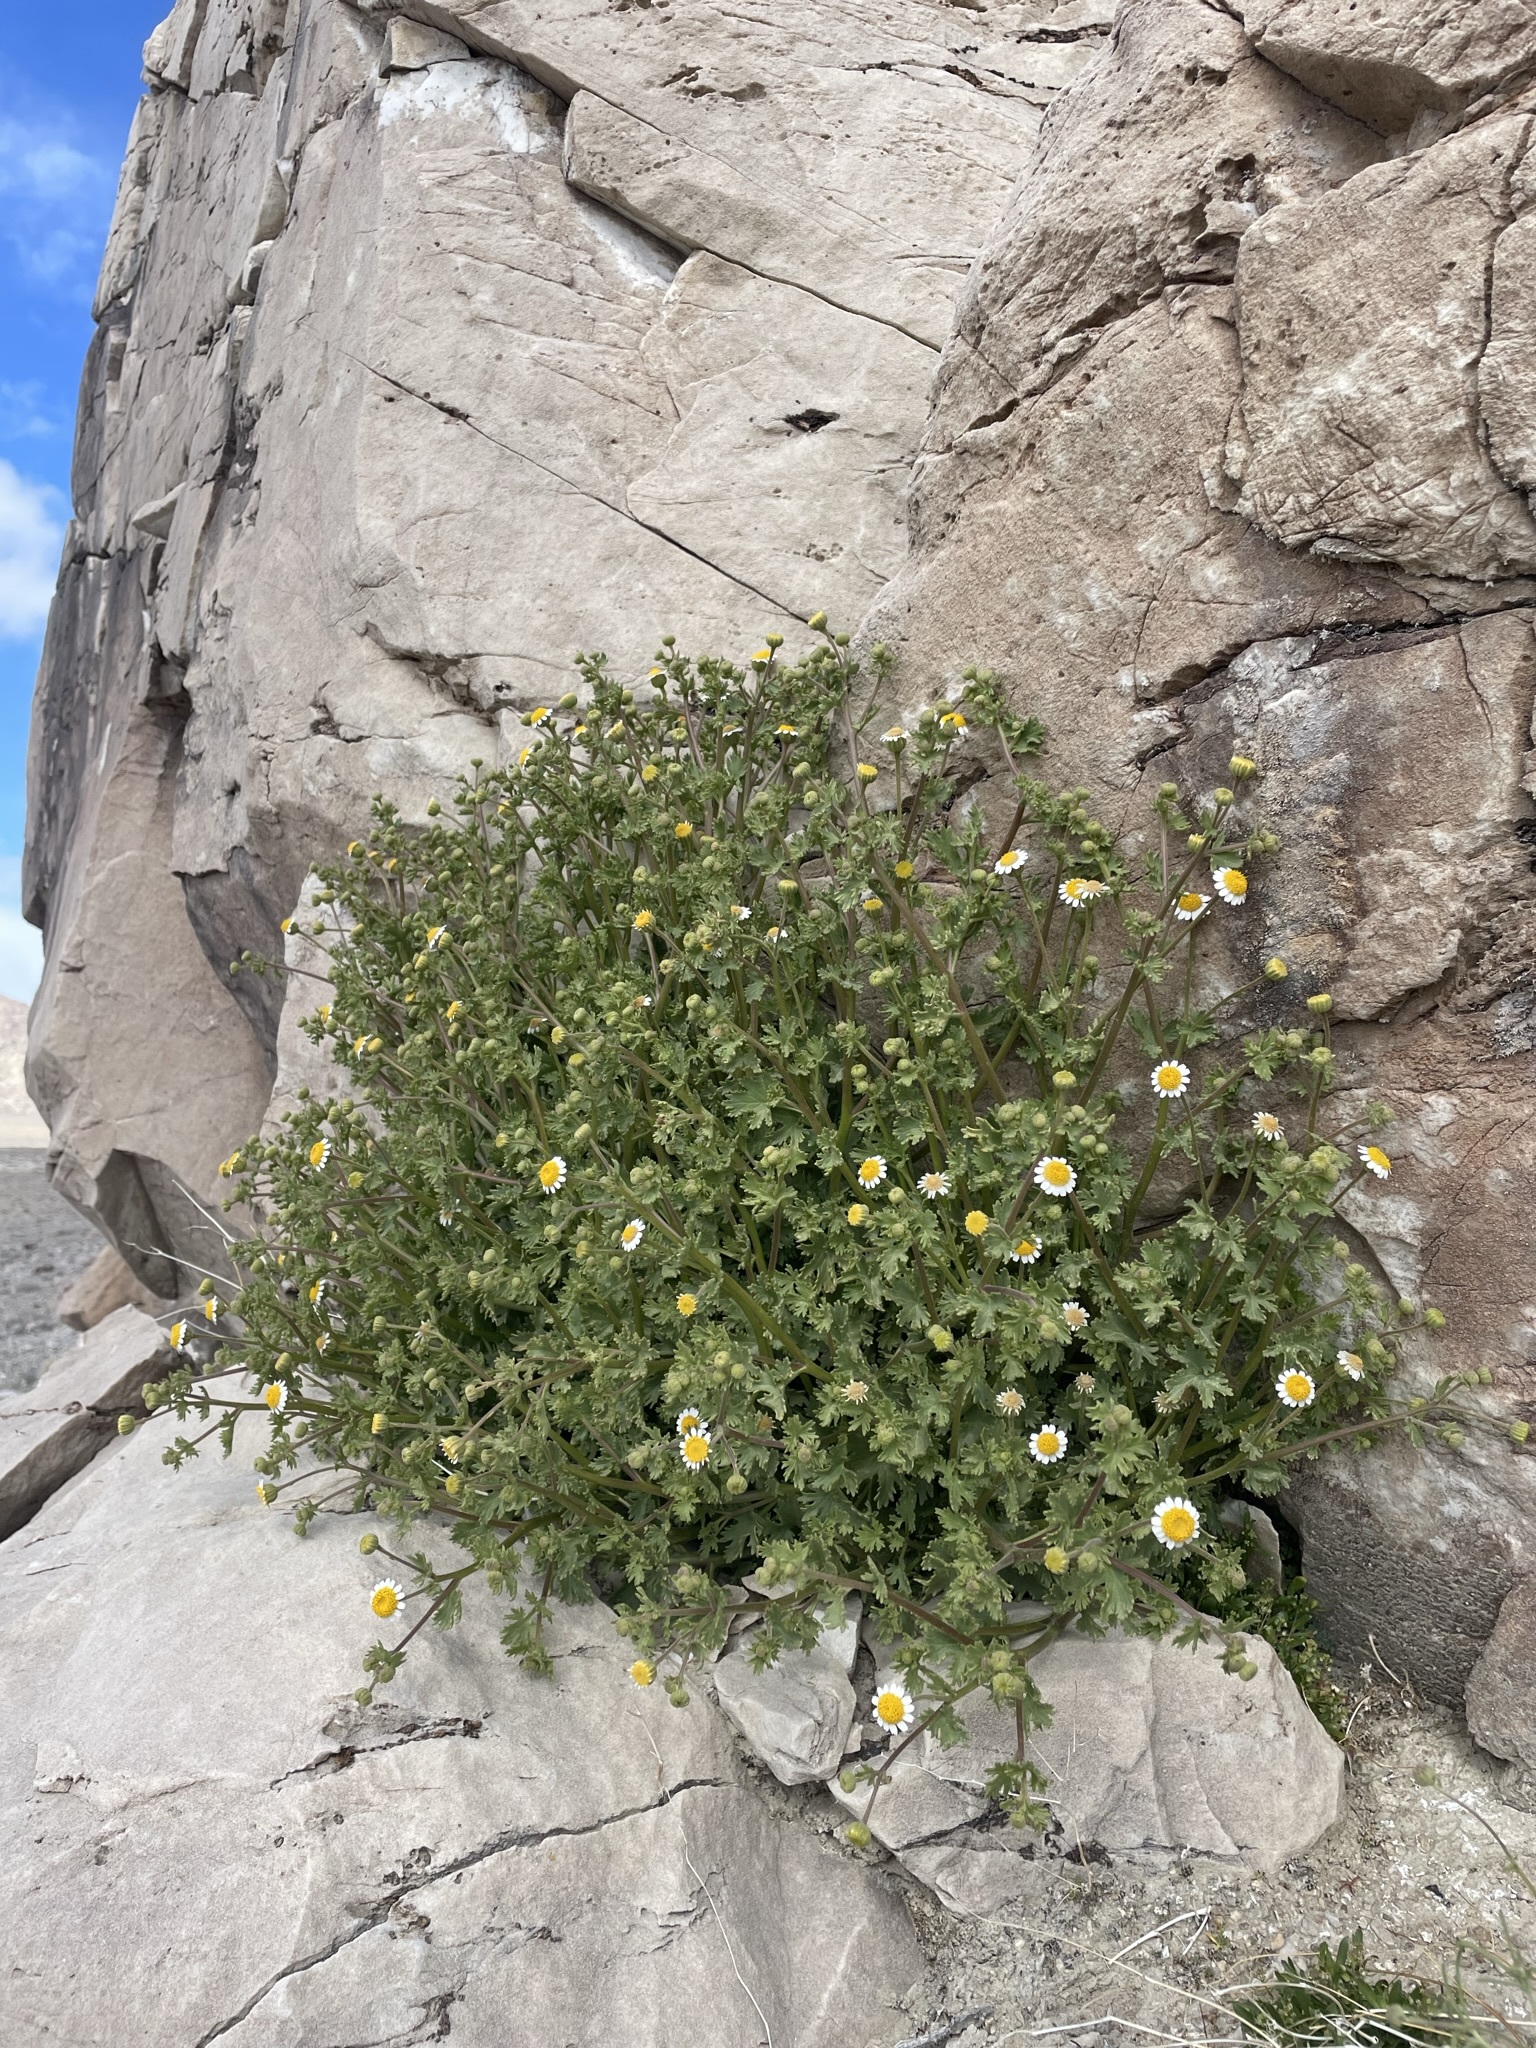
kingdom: Plantae
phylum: Tracheophyta
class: Magnoliopsida
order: Asterales
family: Asteraceae
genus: Laphamia
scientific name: Laphamia emoryi
